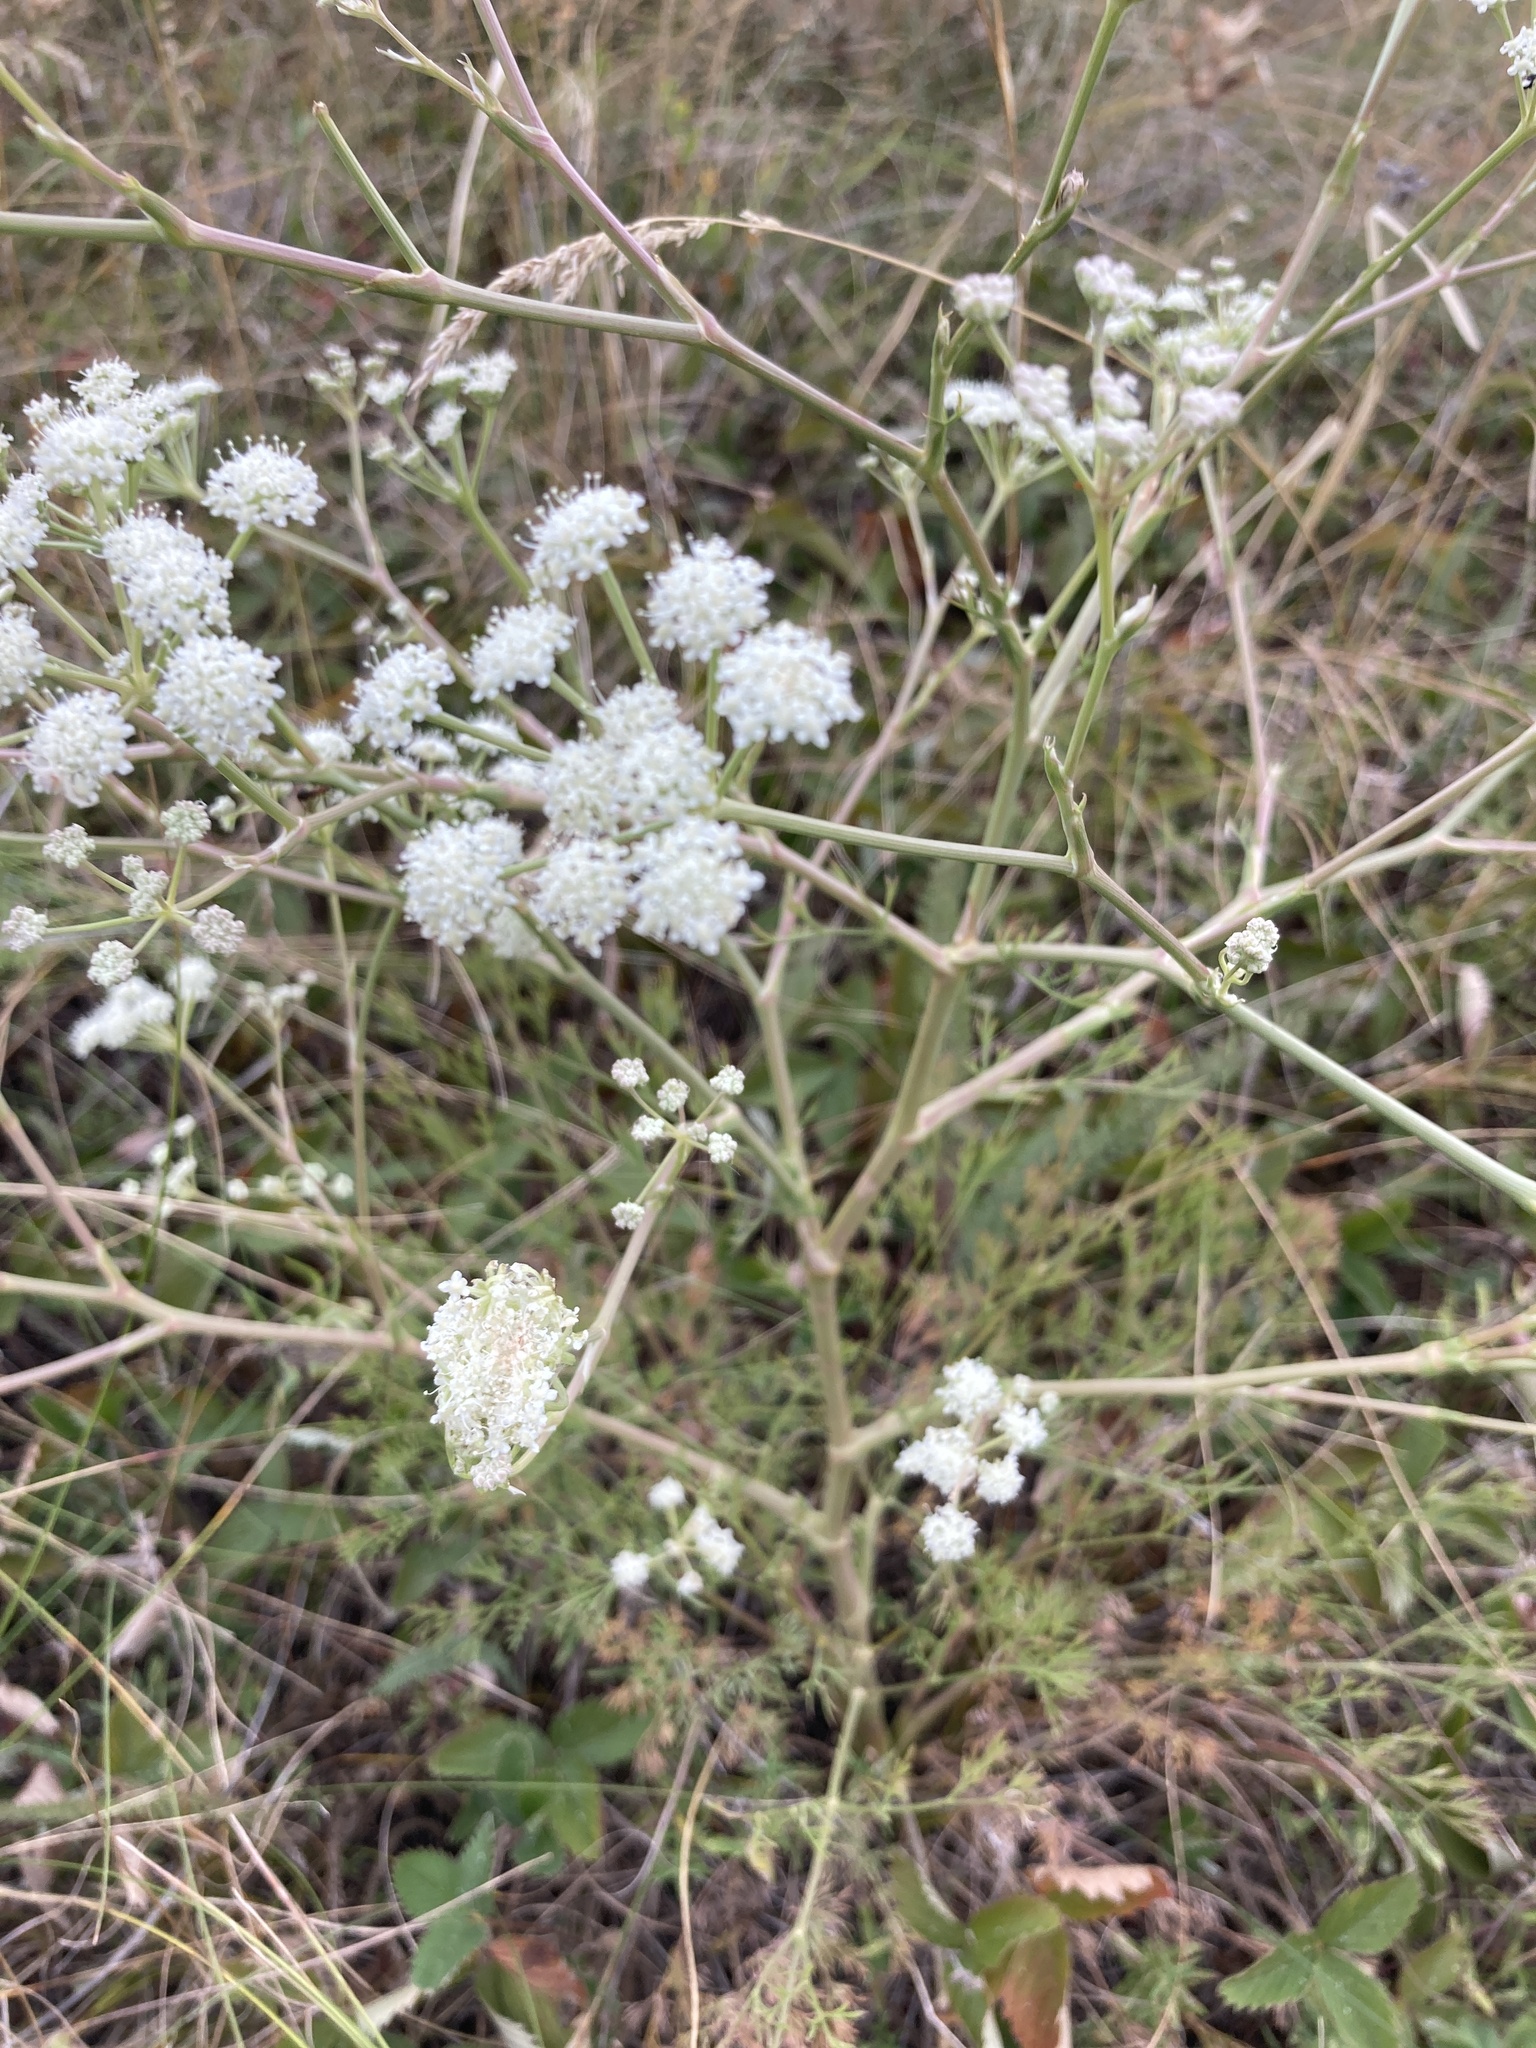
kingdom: Plantae
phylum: Tracheophyta
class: Magnoliopsida
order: Apiales
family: Apiaceae
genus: Seseli
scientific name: Seseli arenarium
